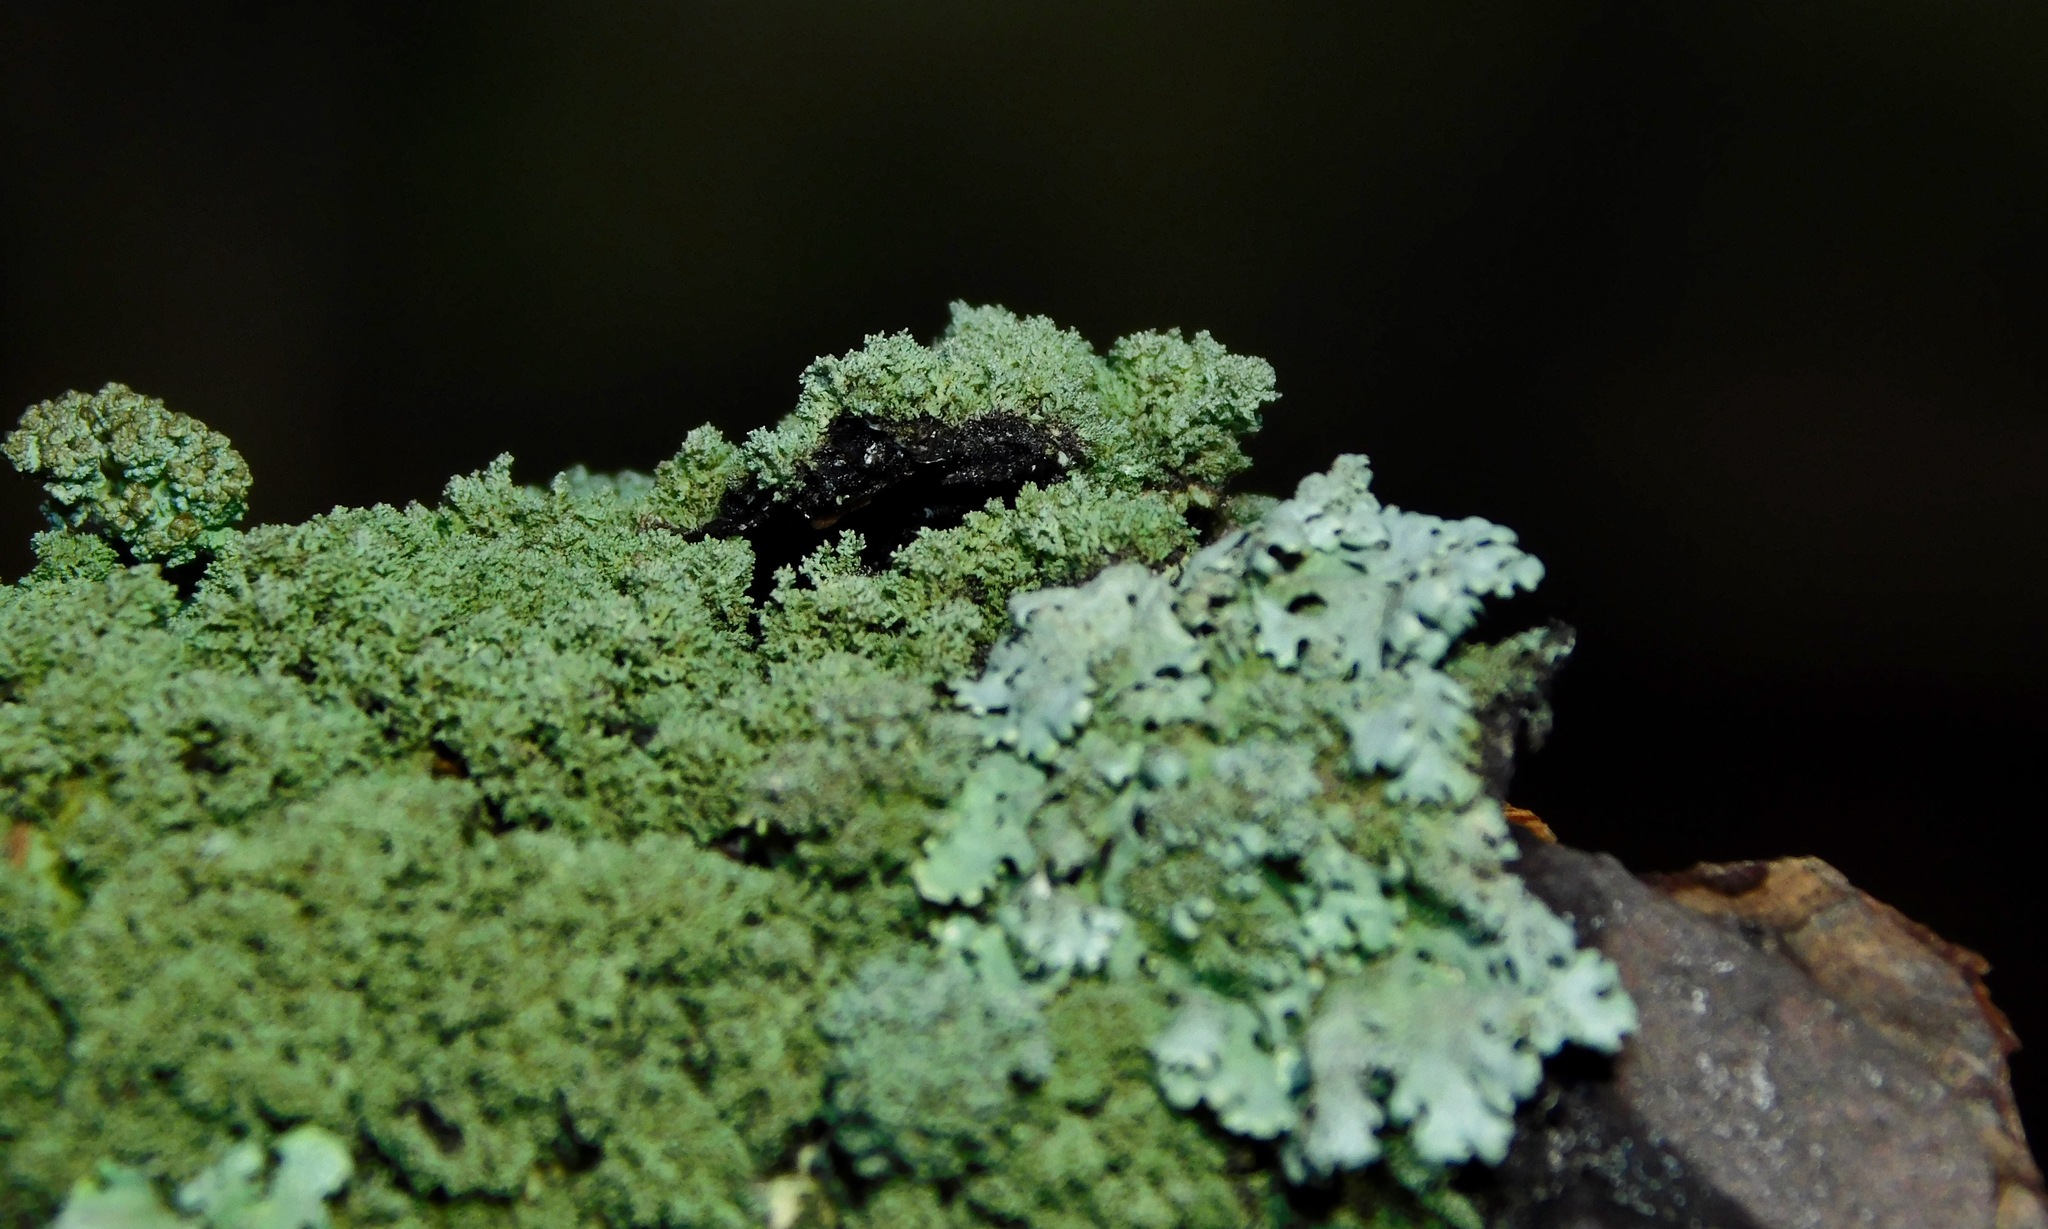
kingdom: Fungi
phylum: Ascomycota
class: Lecanoromycetes
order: Lecanorales
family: Parmeliaceae
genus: Hypotrachyna
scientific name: Hypotrachyna minarum
